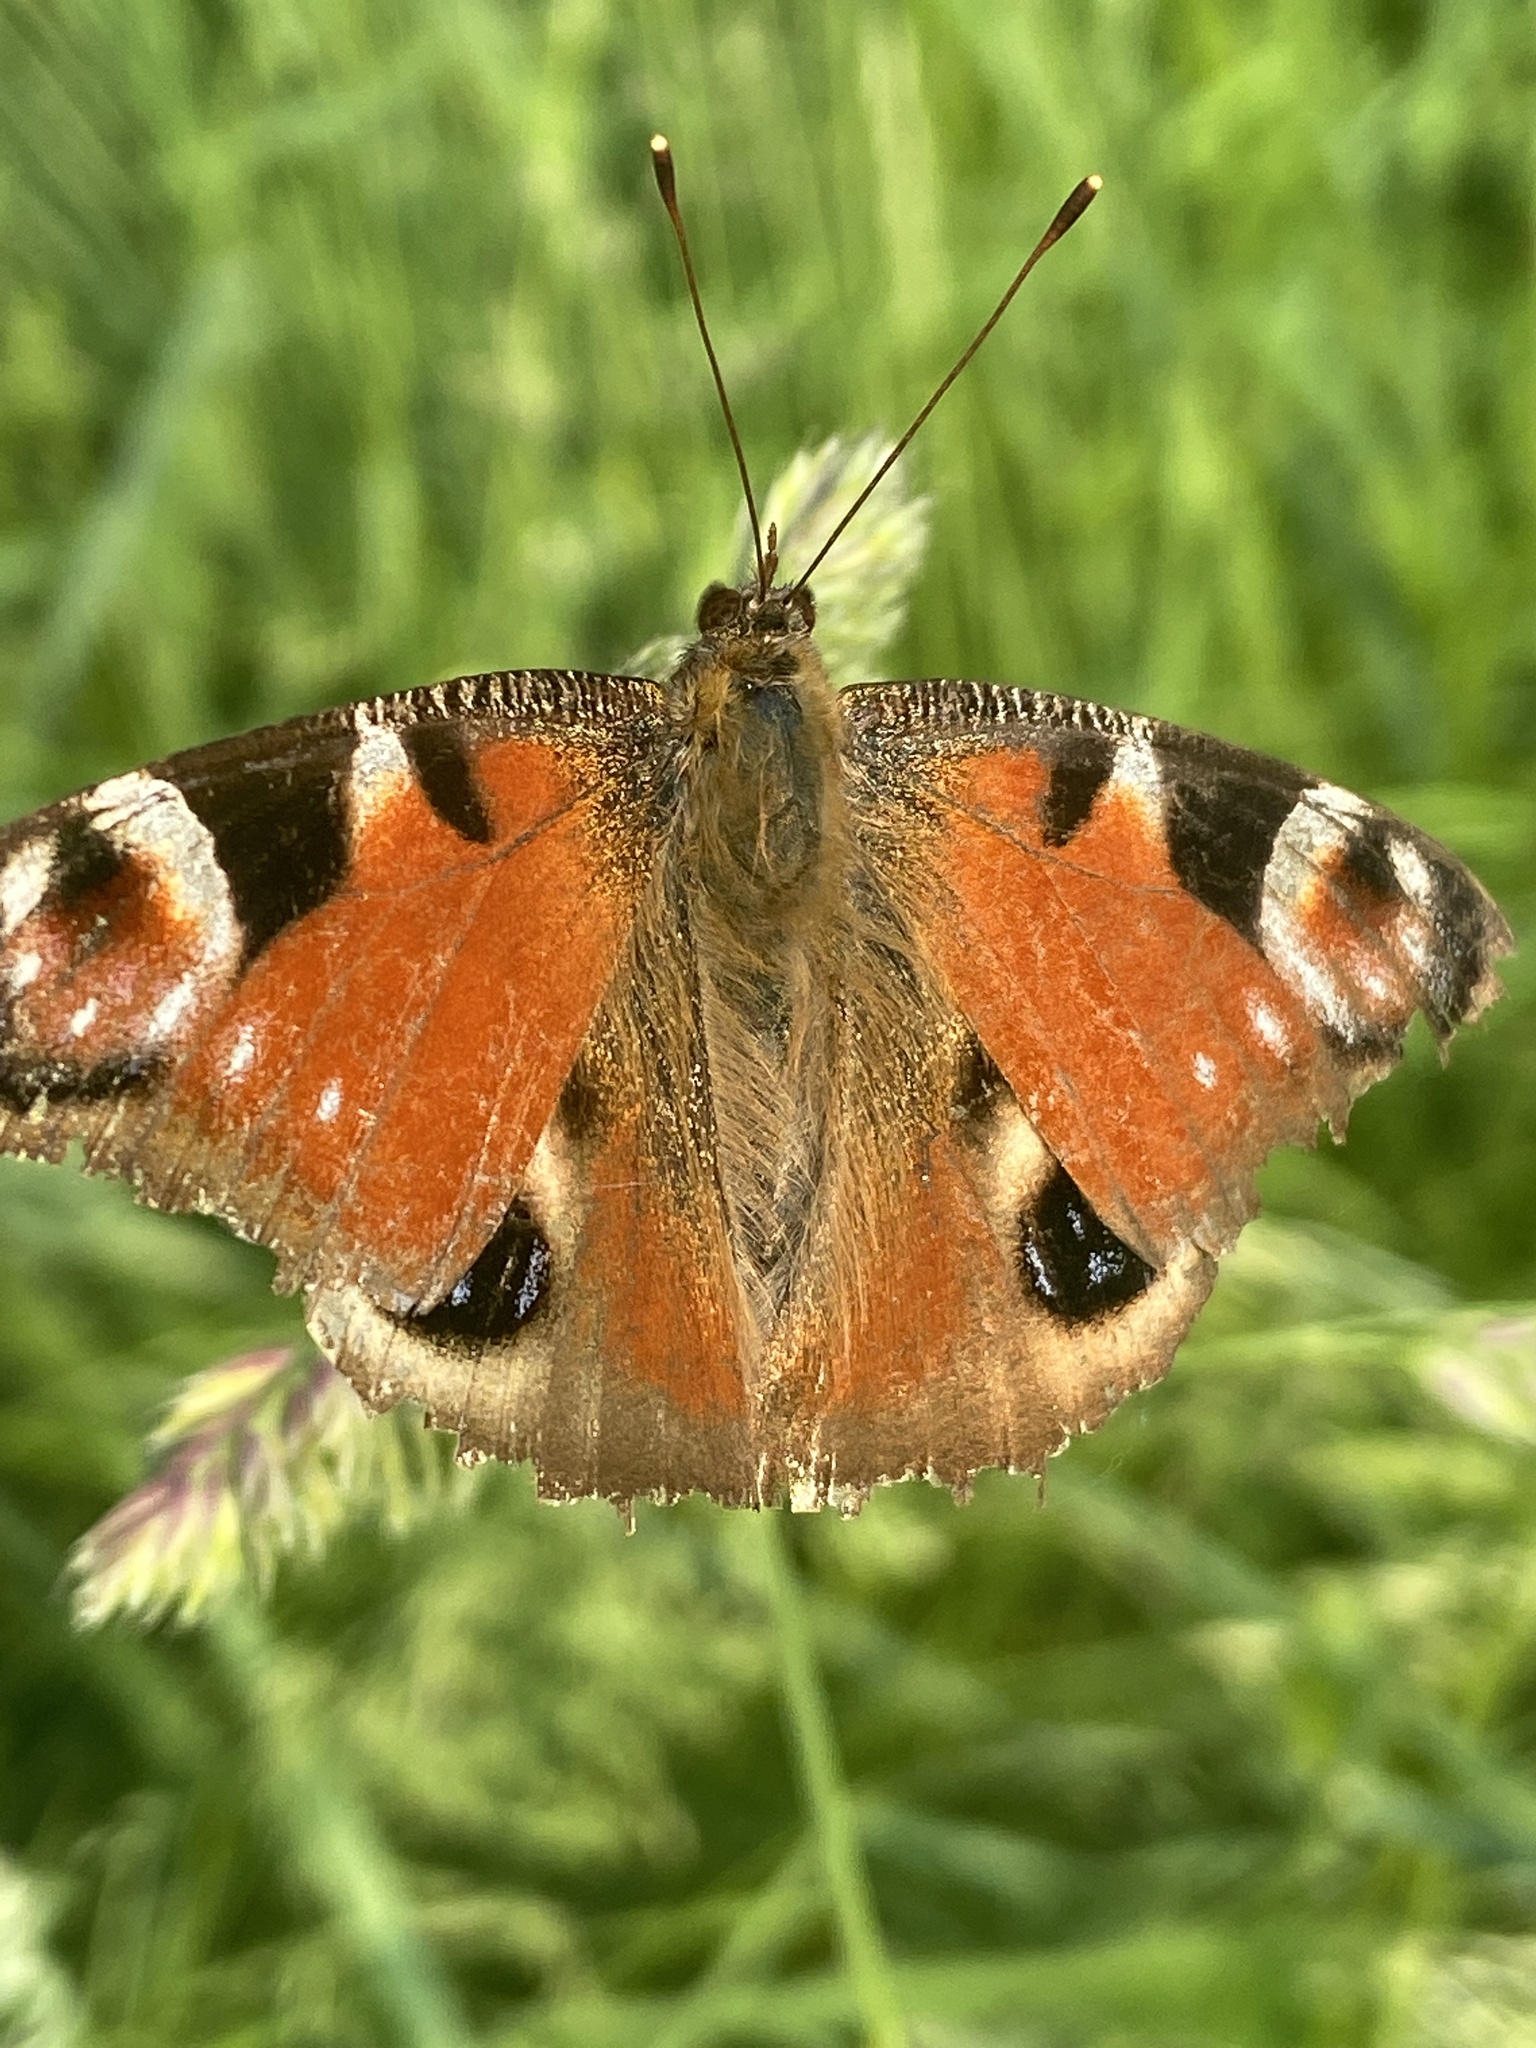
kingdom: Animalia
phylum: Arthropoda
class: Insecta
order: Lepidoptera
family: Nymphalidae
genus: Aglais
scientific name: Aglais io
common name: Peacock
